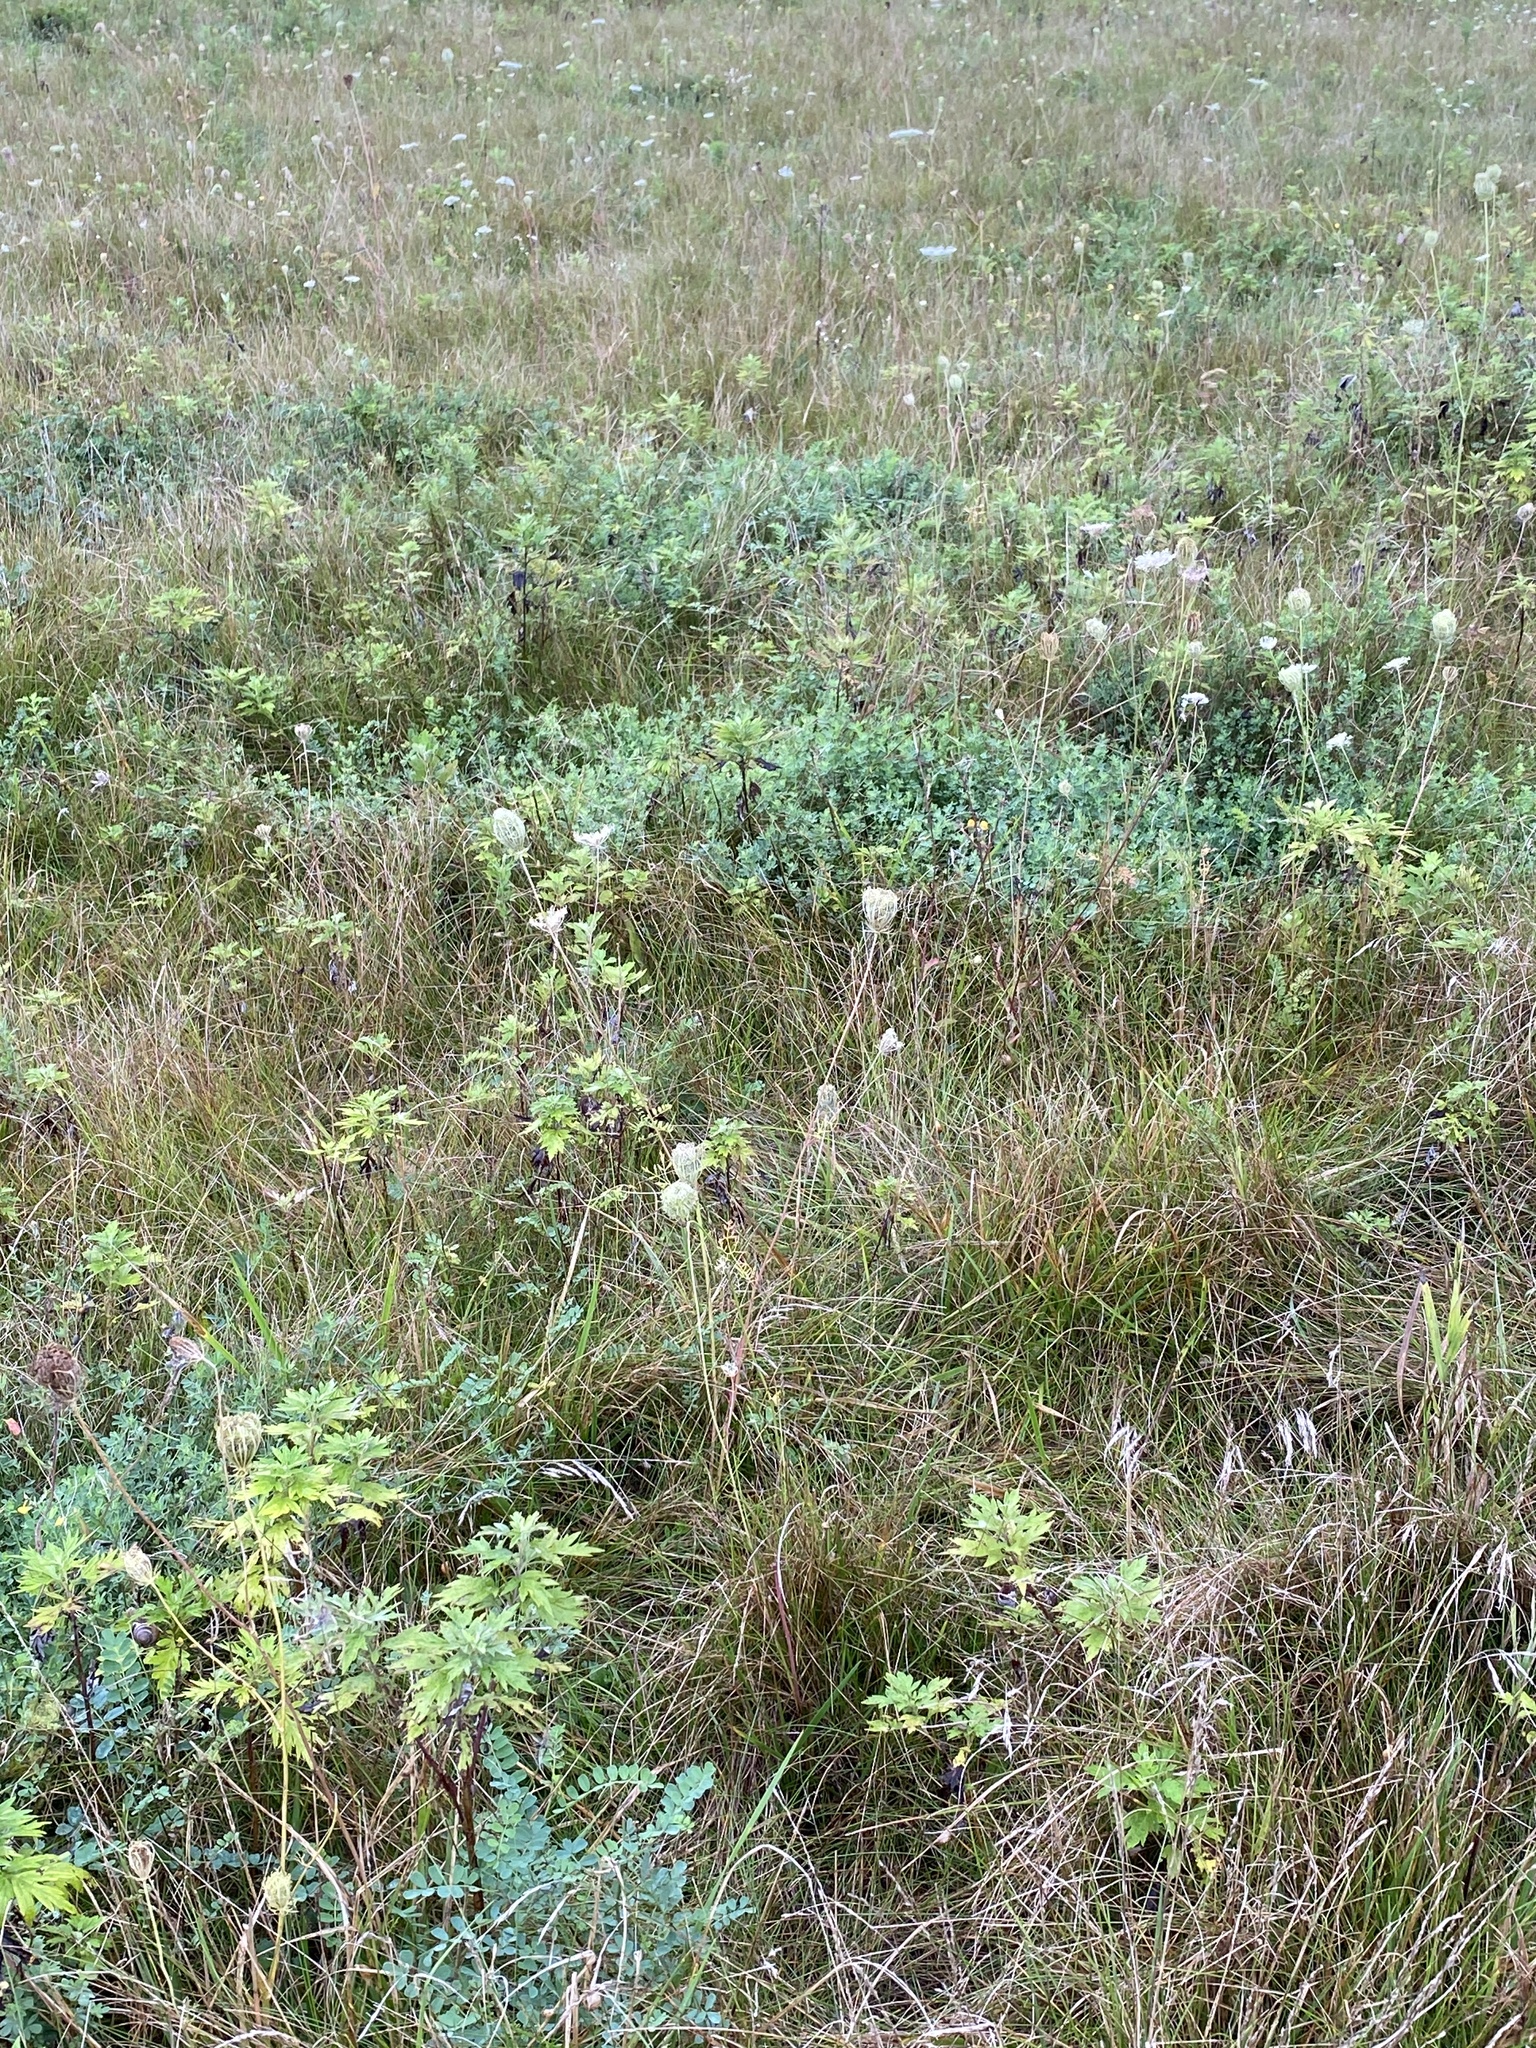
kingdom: Plantae
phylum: Tracheophyta
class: Magnoliopsida
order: Apiales
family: Apiaceae
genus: Daucus
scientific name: Daucus carota
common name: Wild carrot
